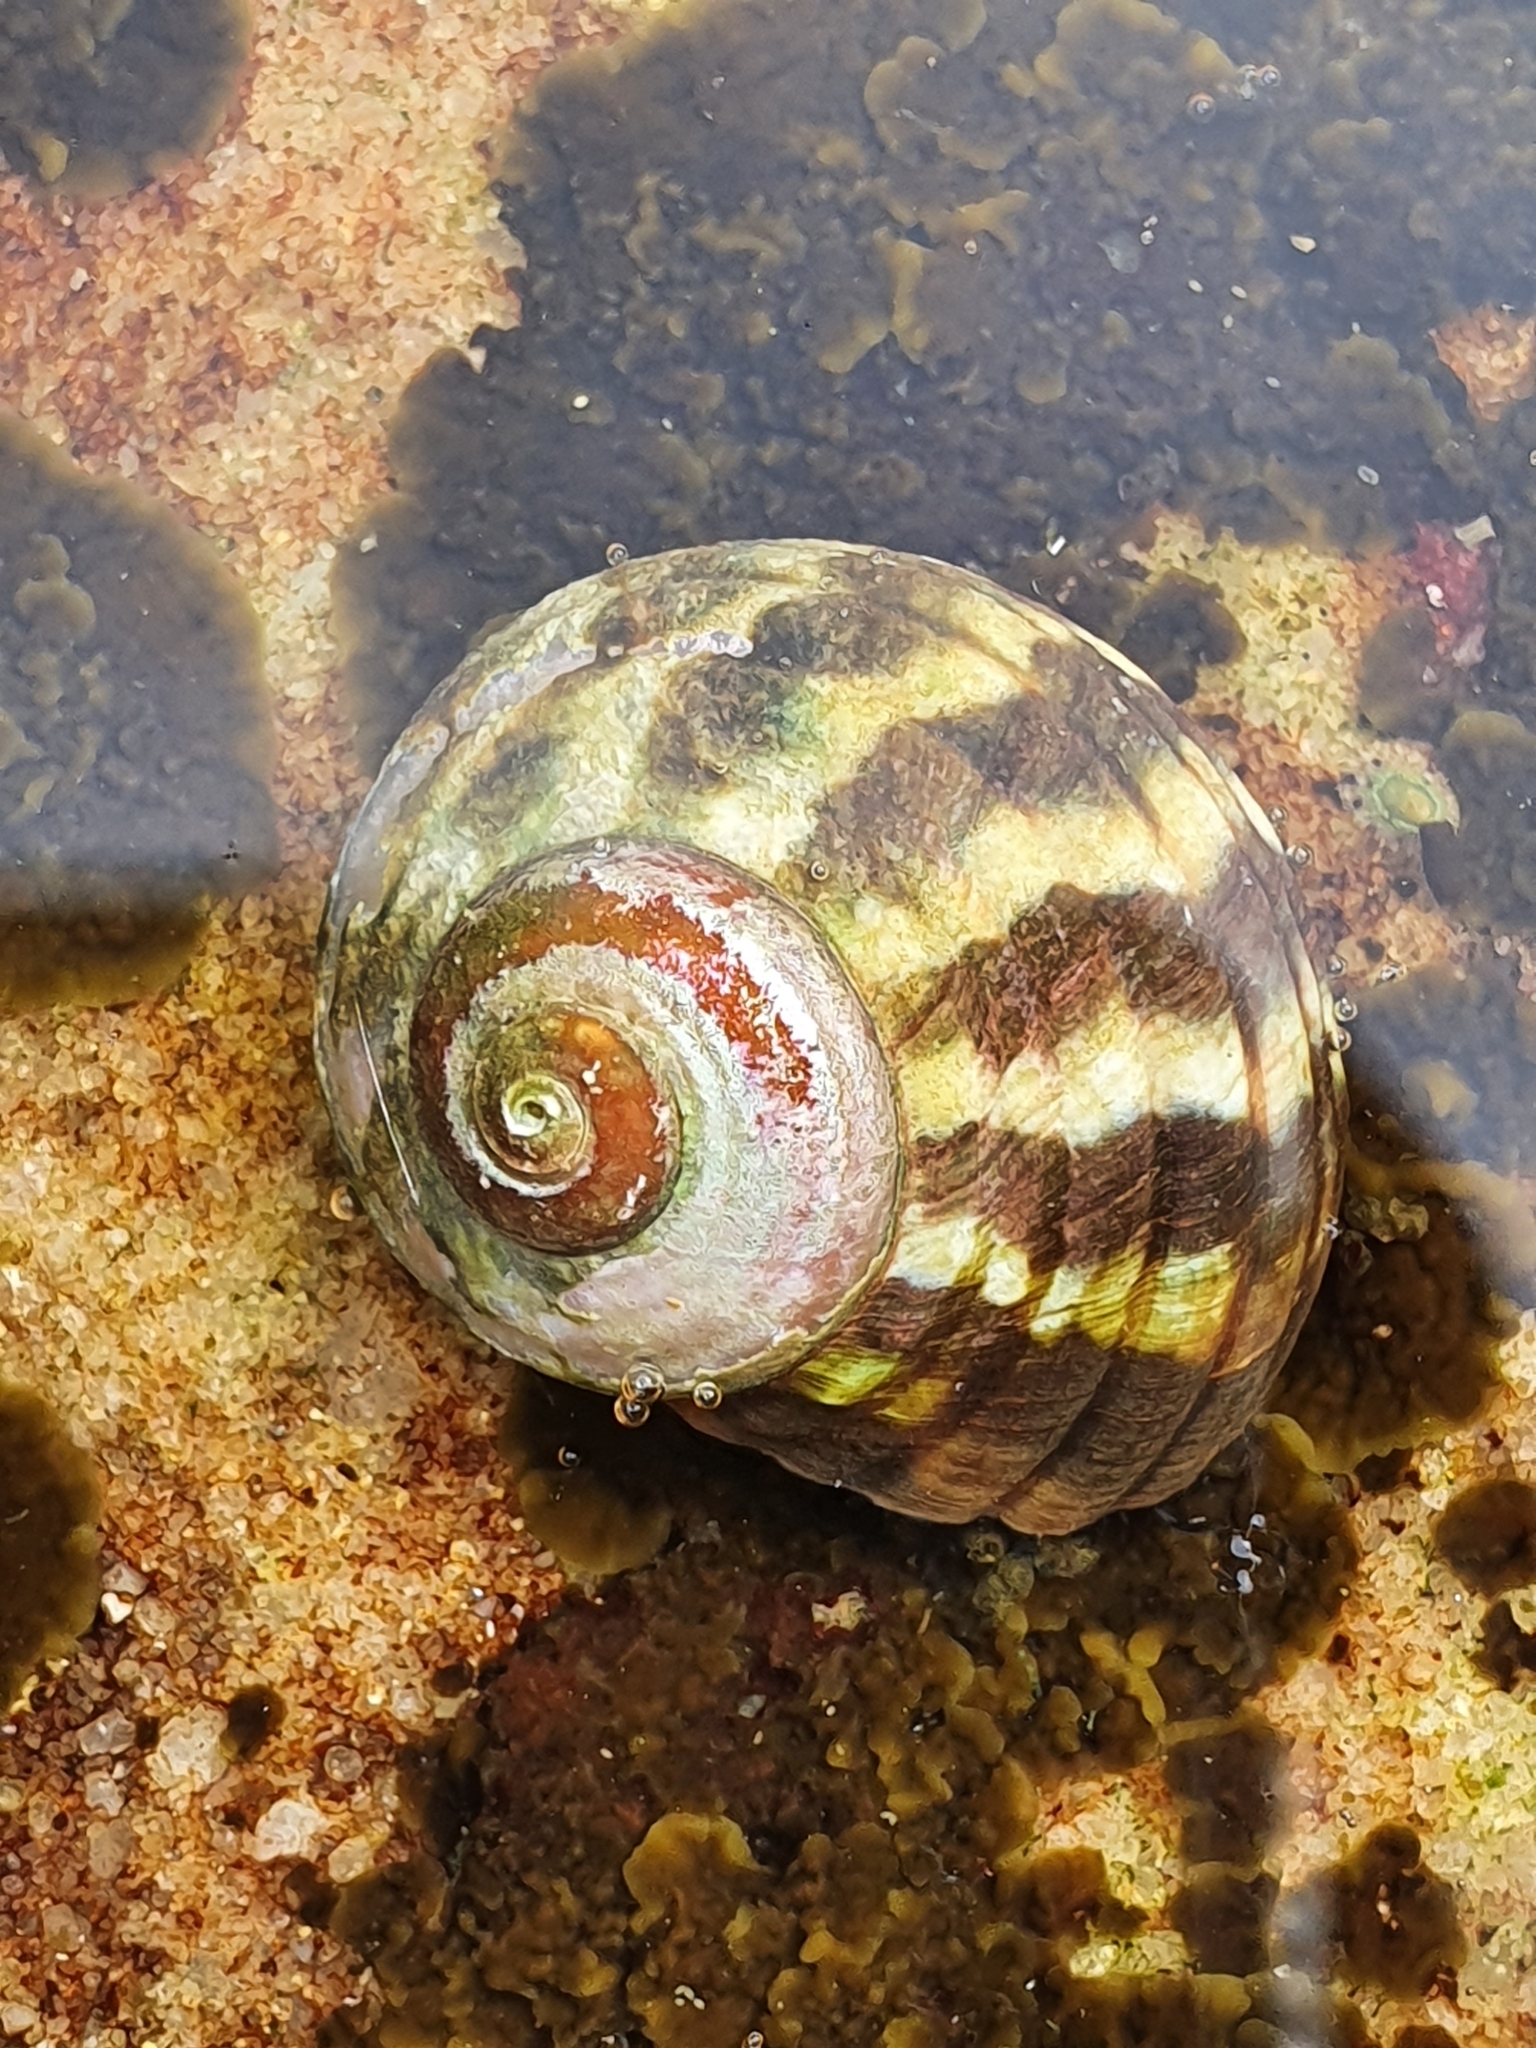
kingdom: Animalia
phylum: Mollusca
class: Gastropoda
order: Trochida
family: Turbinidae
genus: Lunella
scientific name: Lunella undulata
